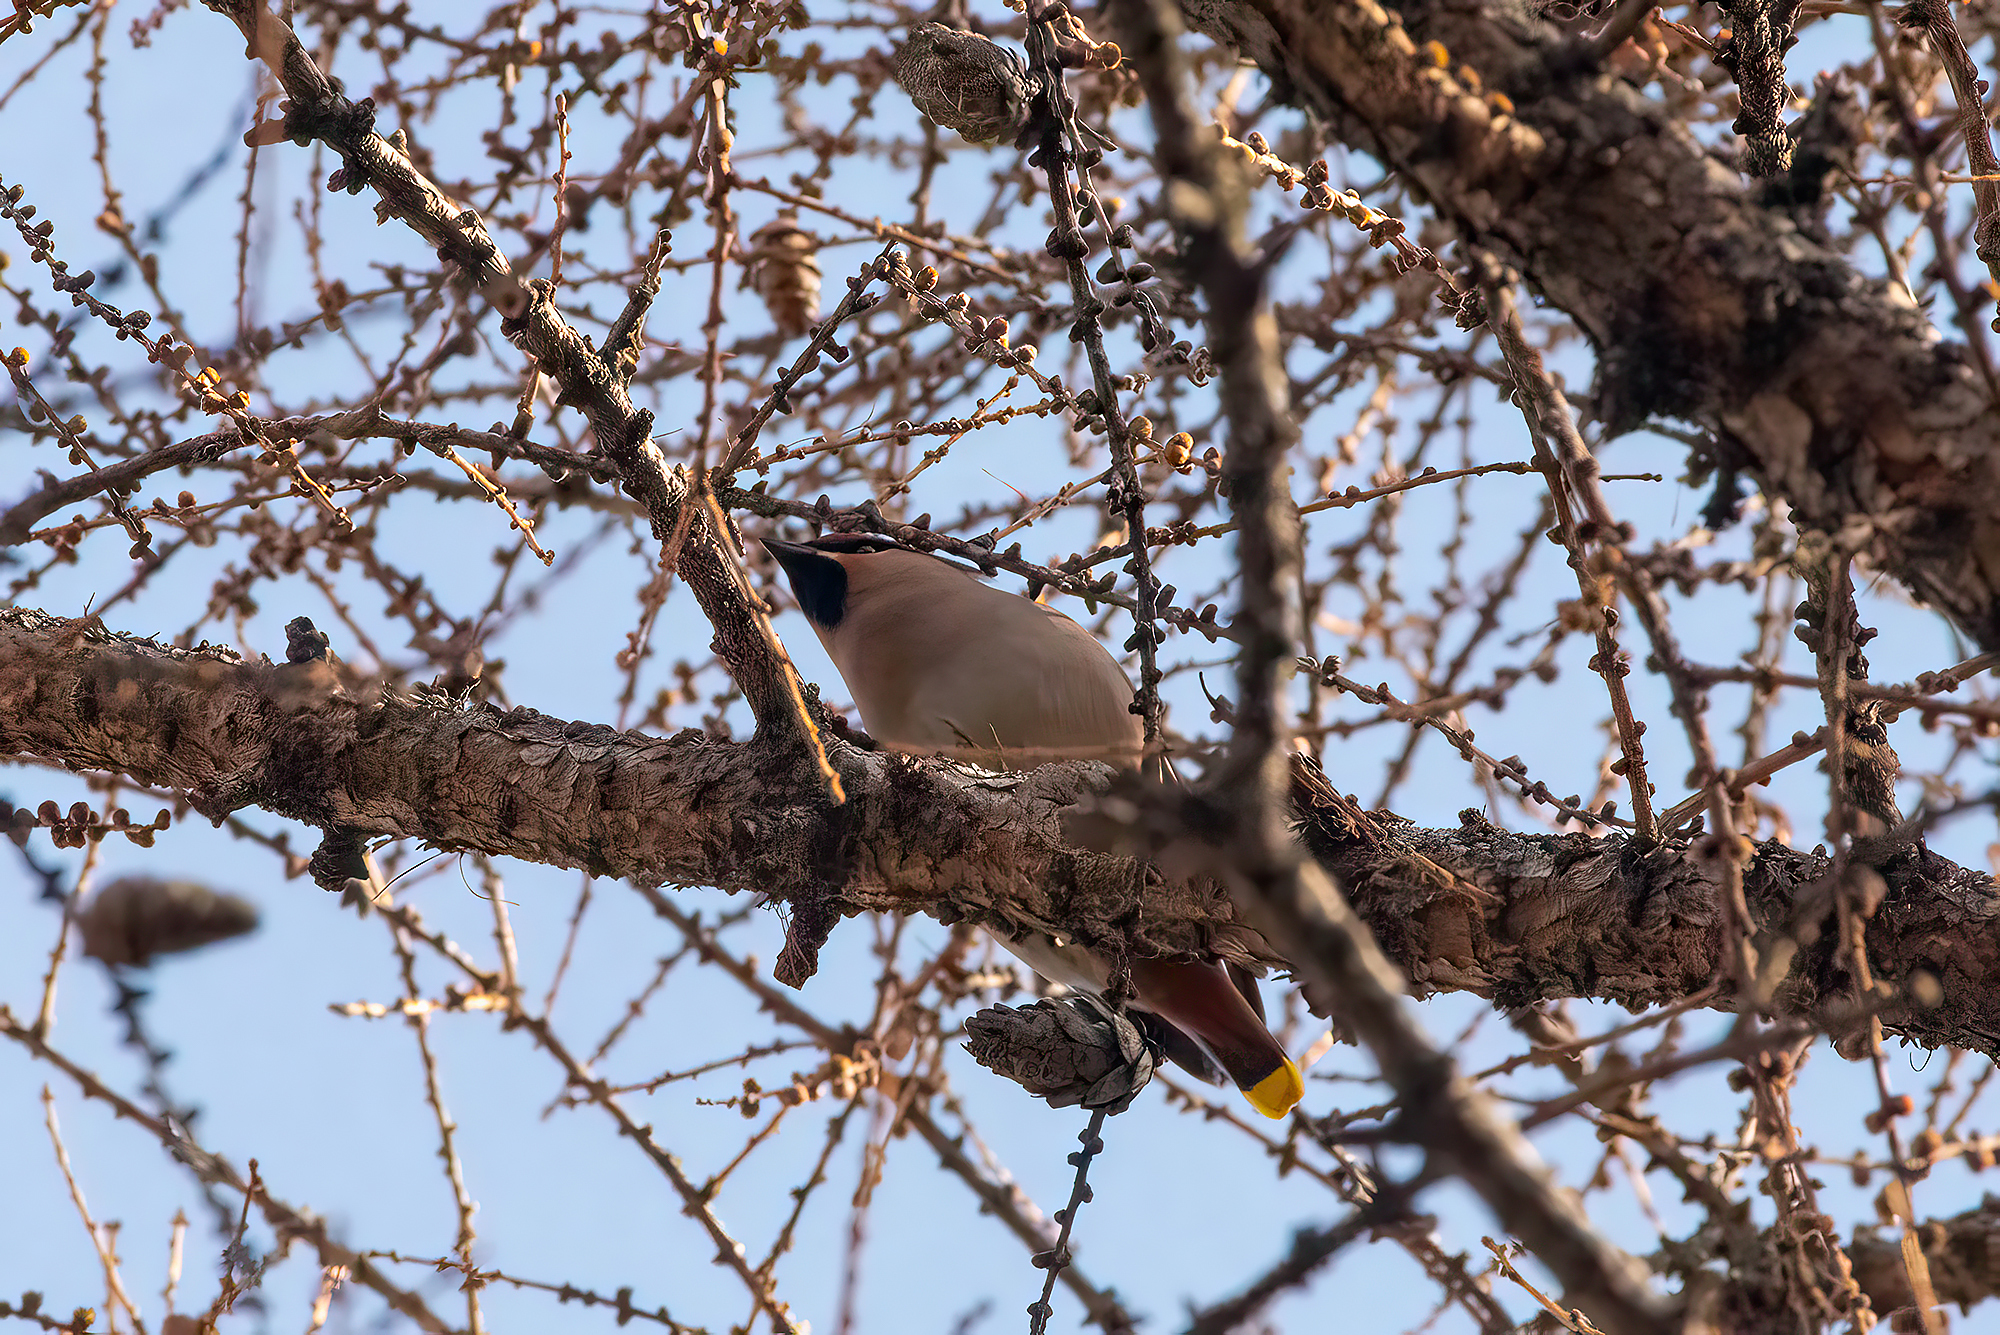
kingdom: Animalia
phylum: Chordata
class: Aves
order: Passeriformes
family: Bombycillidae
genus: Bombycilla
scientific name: Bombycilla garrulus
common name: Bohemian waxwing
